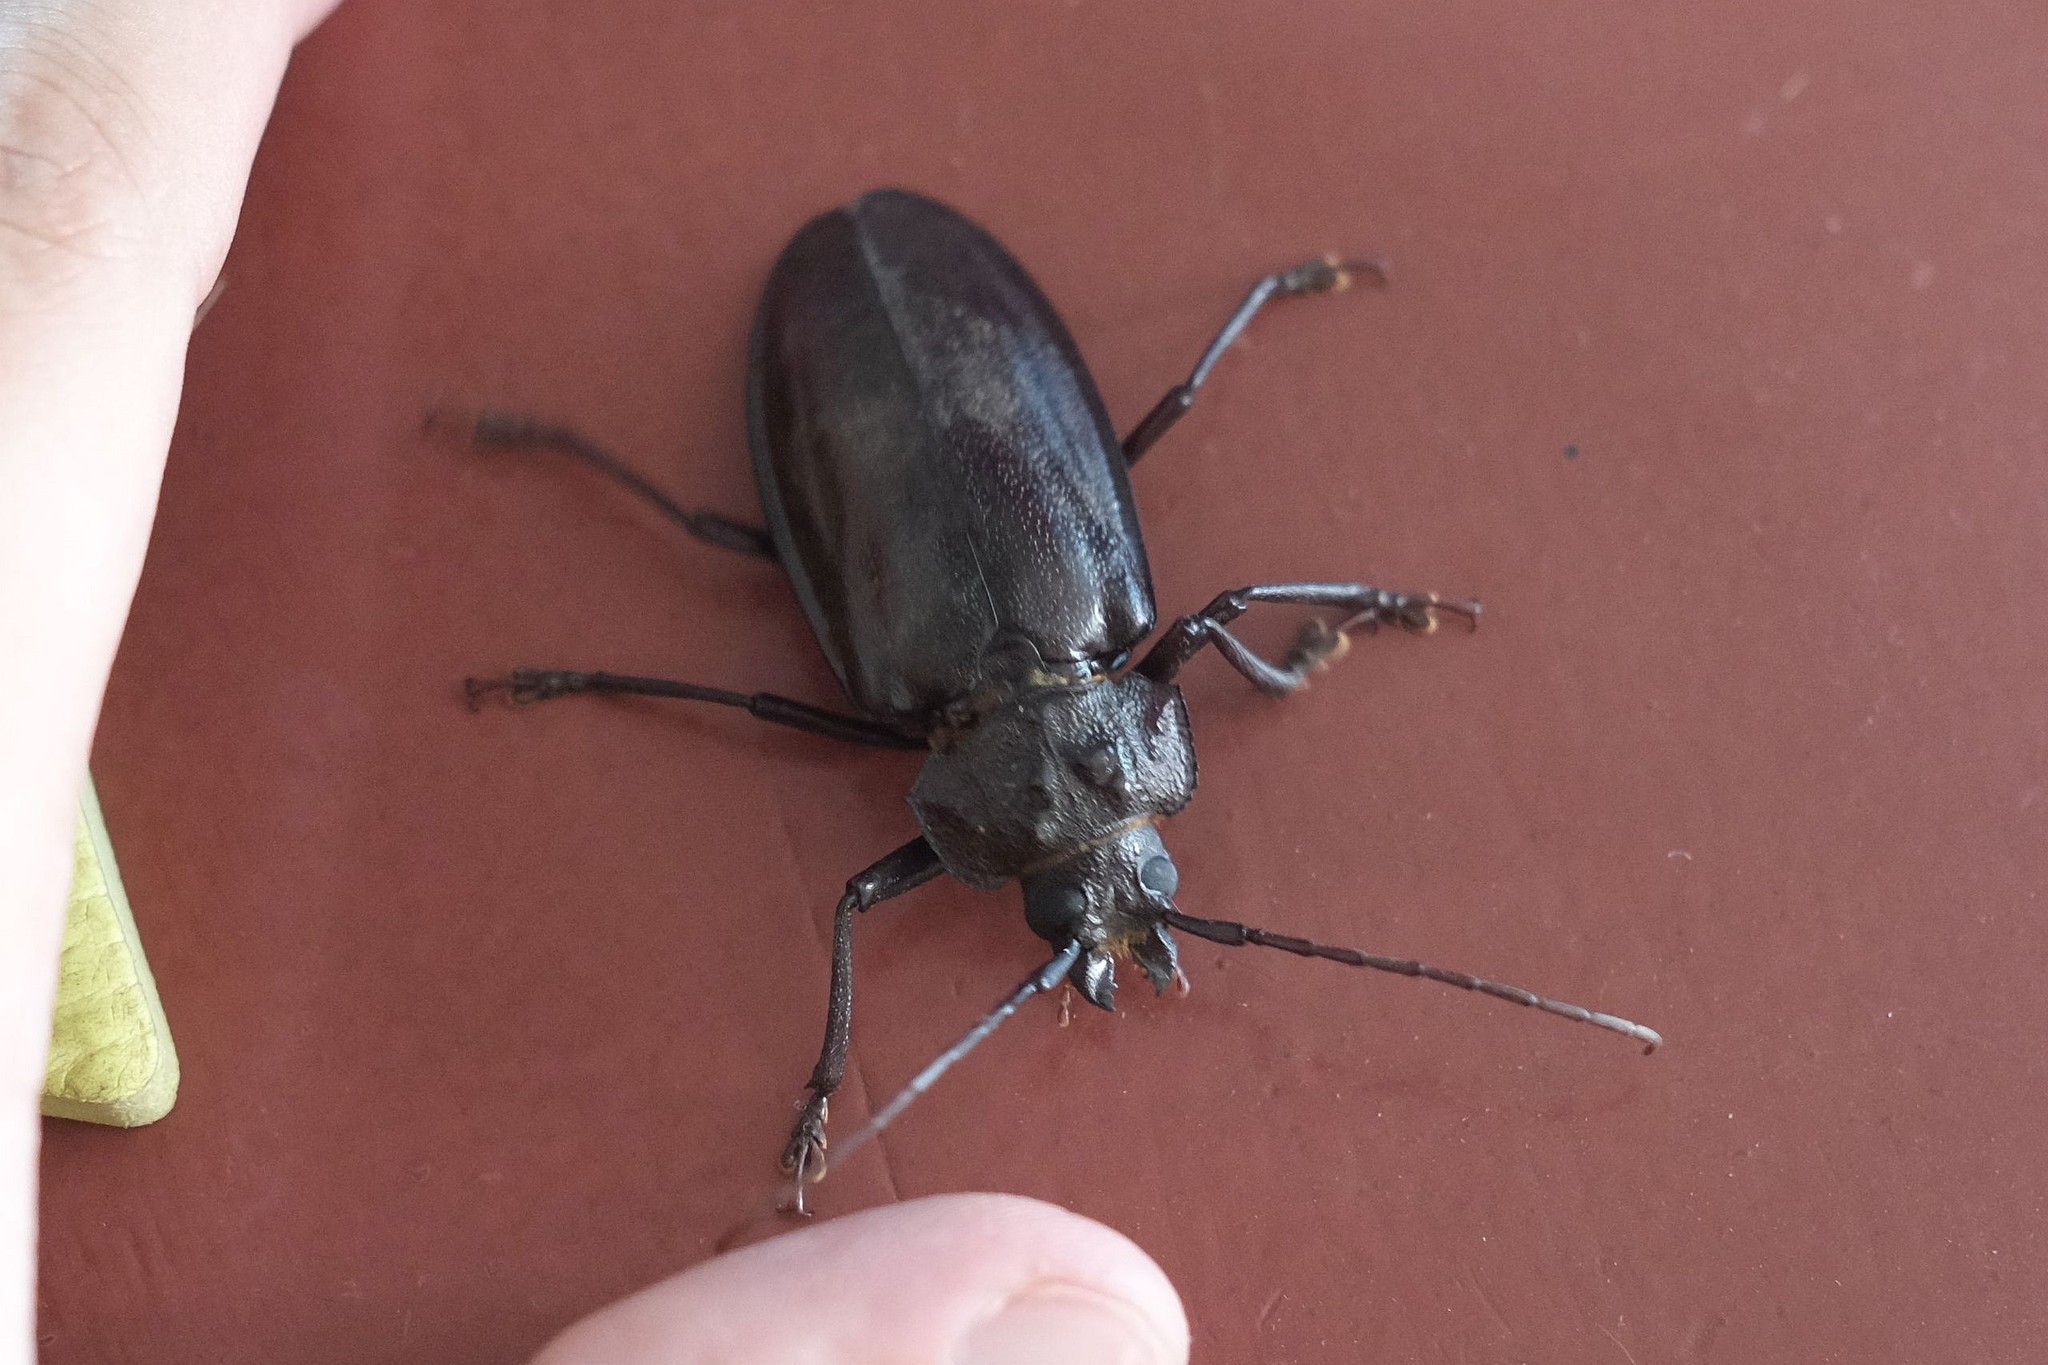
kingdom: Animalia
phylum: Arthropoda
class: Insecta
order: Coleoptera
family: Cerambycidae
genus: Olethrius
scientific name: Olethrius tyrannus
